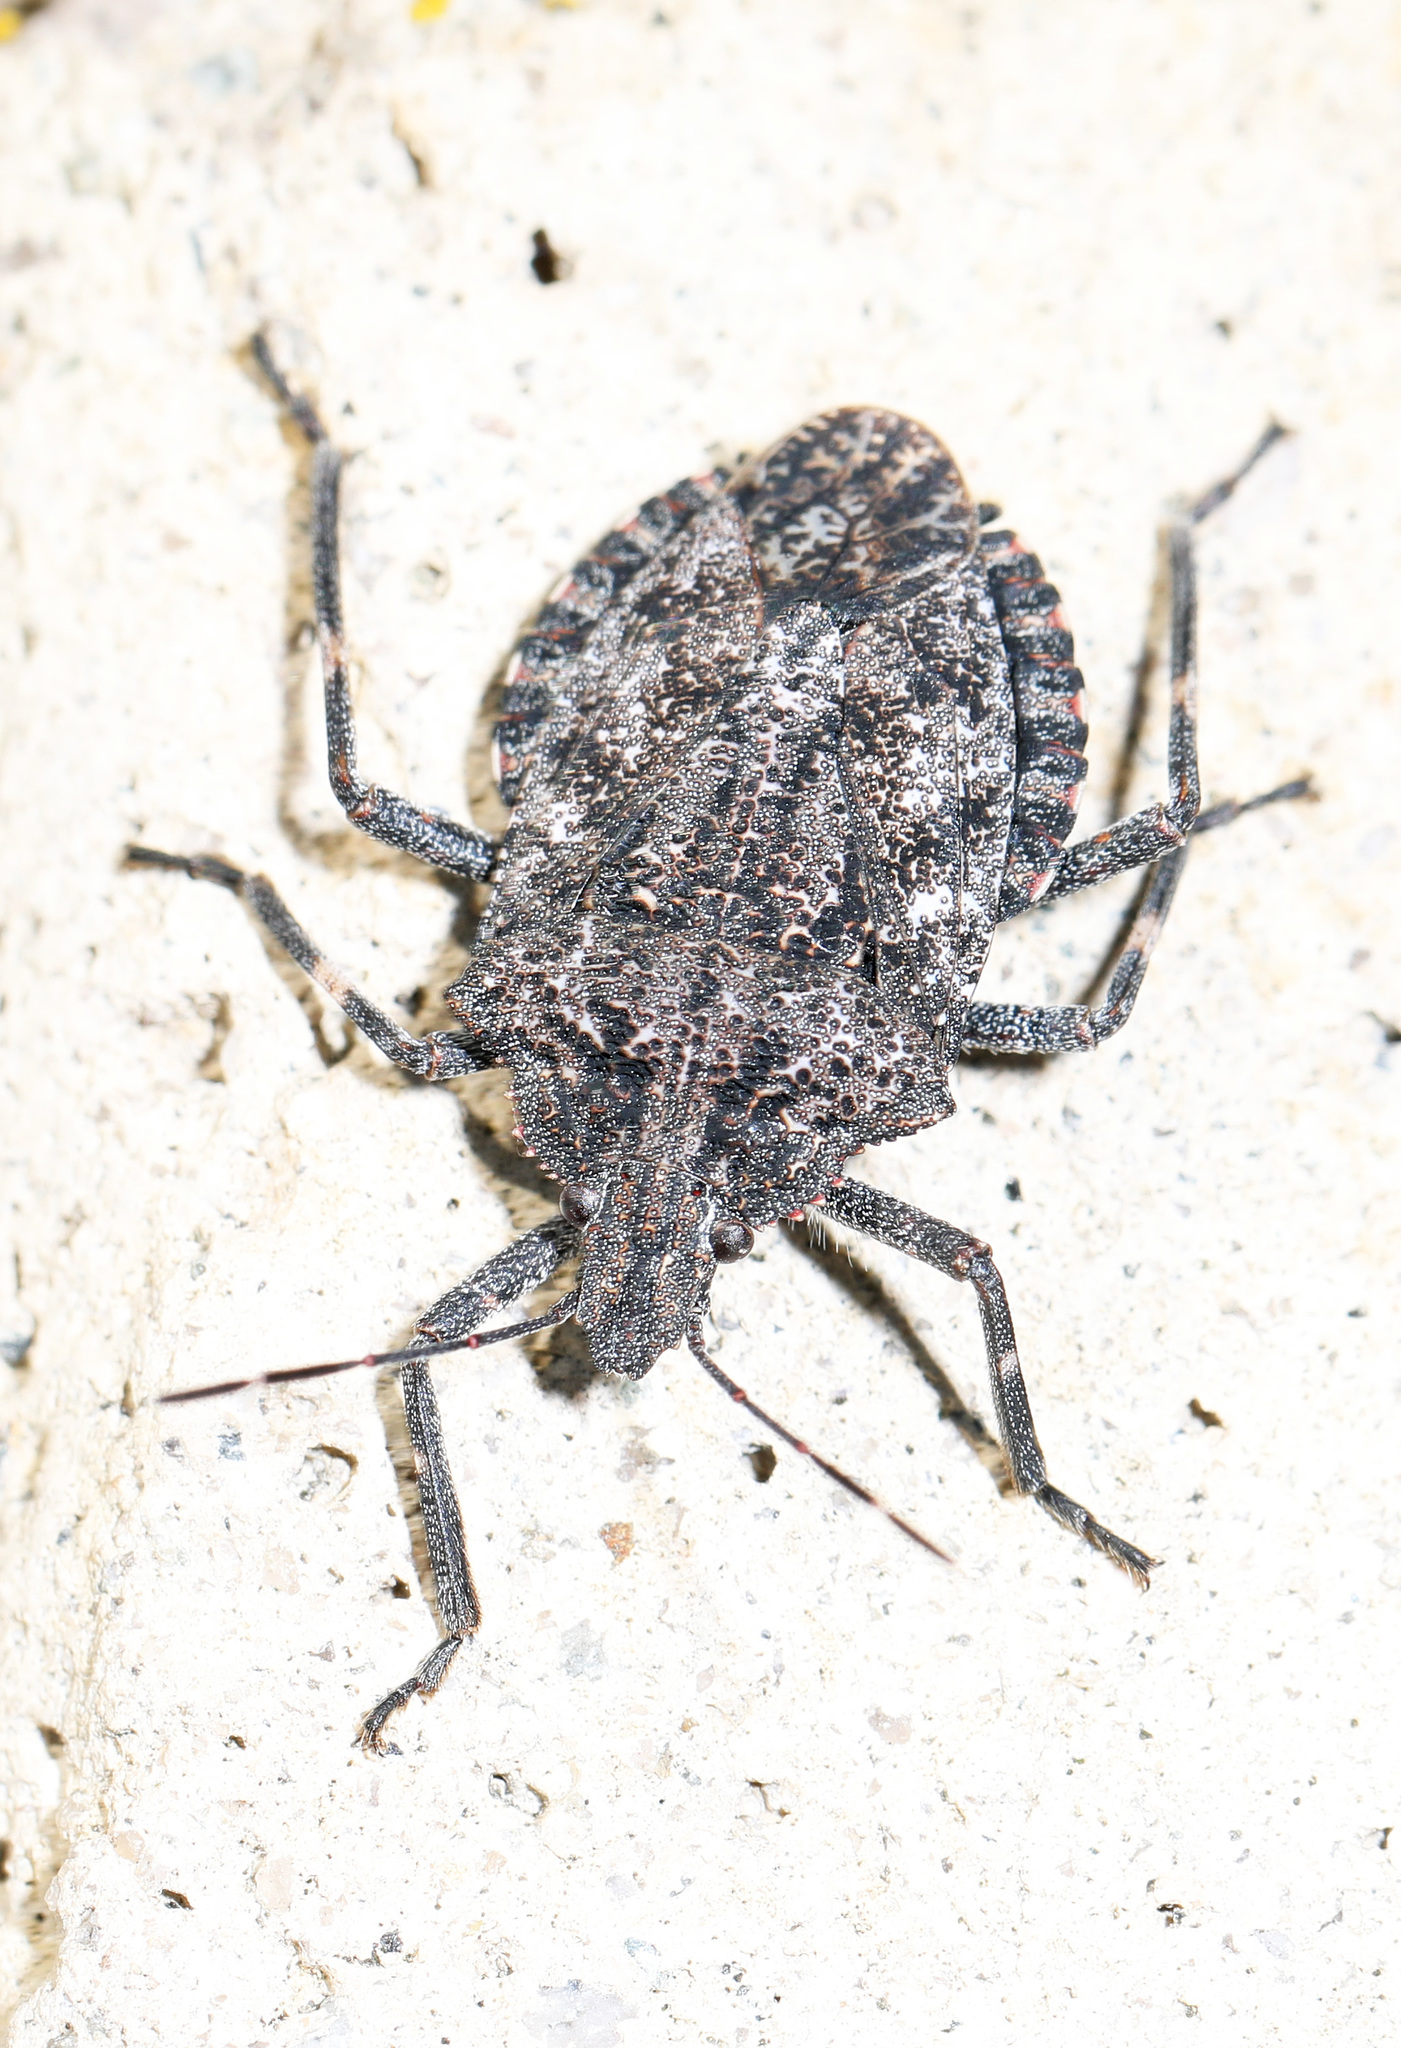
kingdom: Animalia
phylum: Arthropoda
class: Insecta
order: Hemiptera
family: Pentatomidae
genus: Brochymena
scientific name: Brochymena affinis
